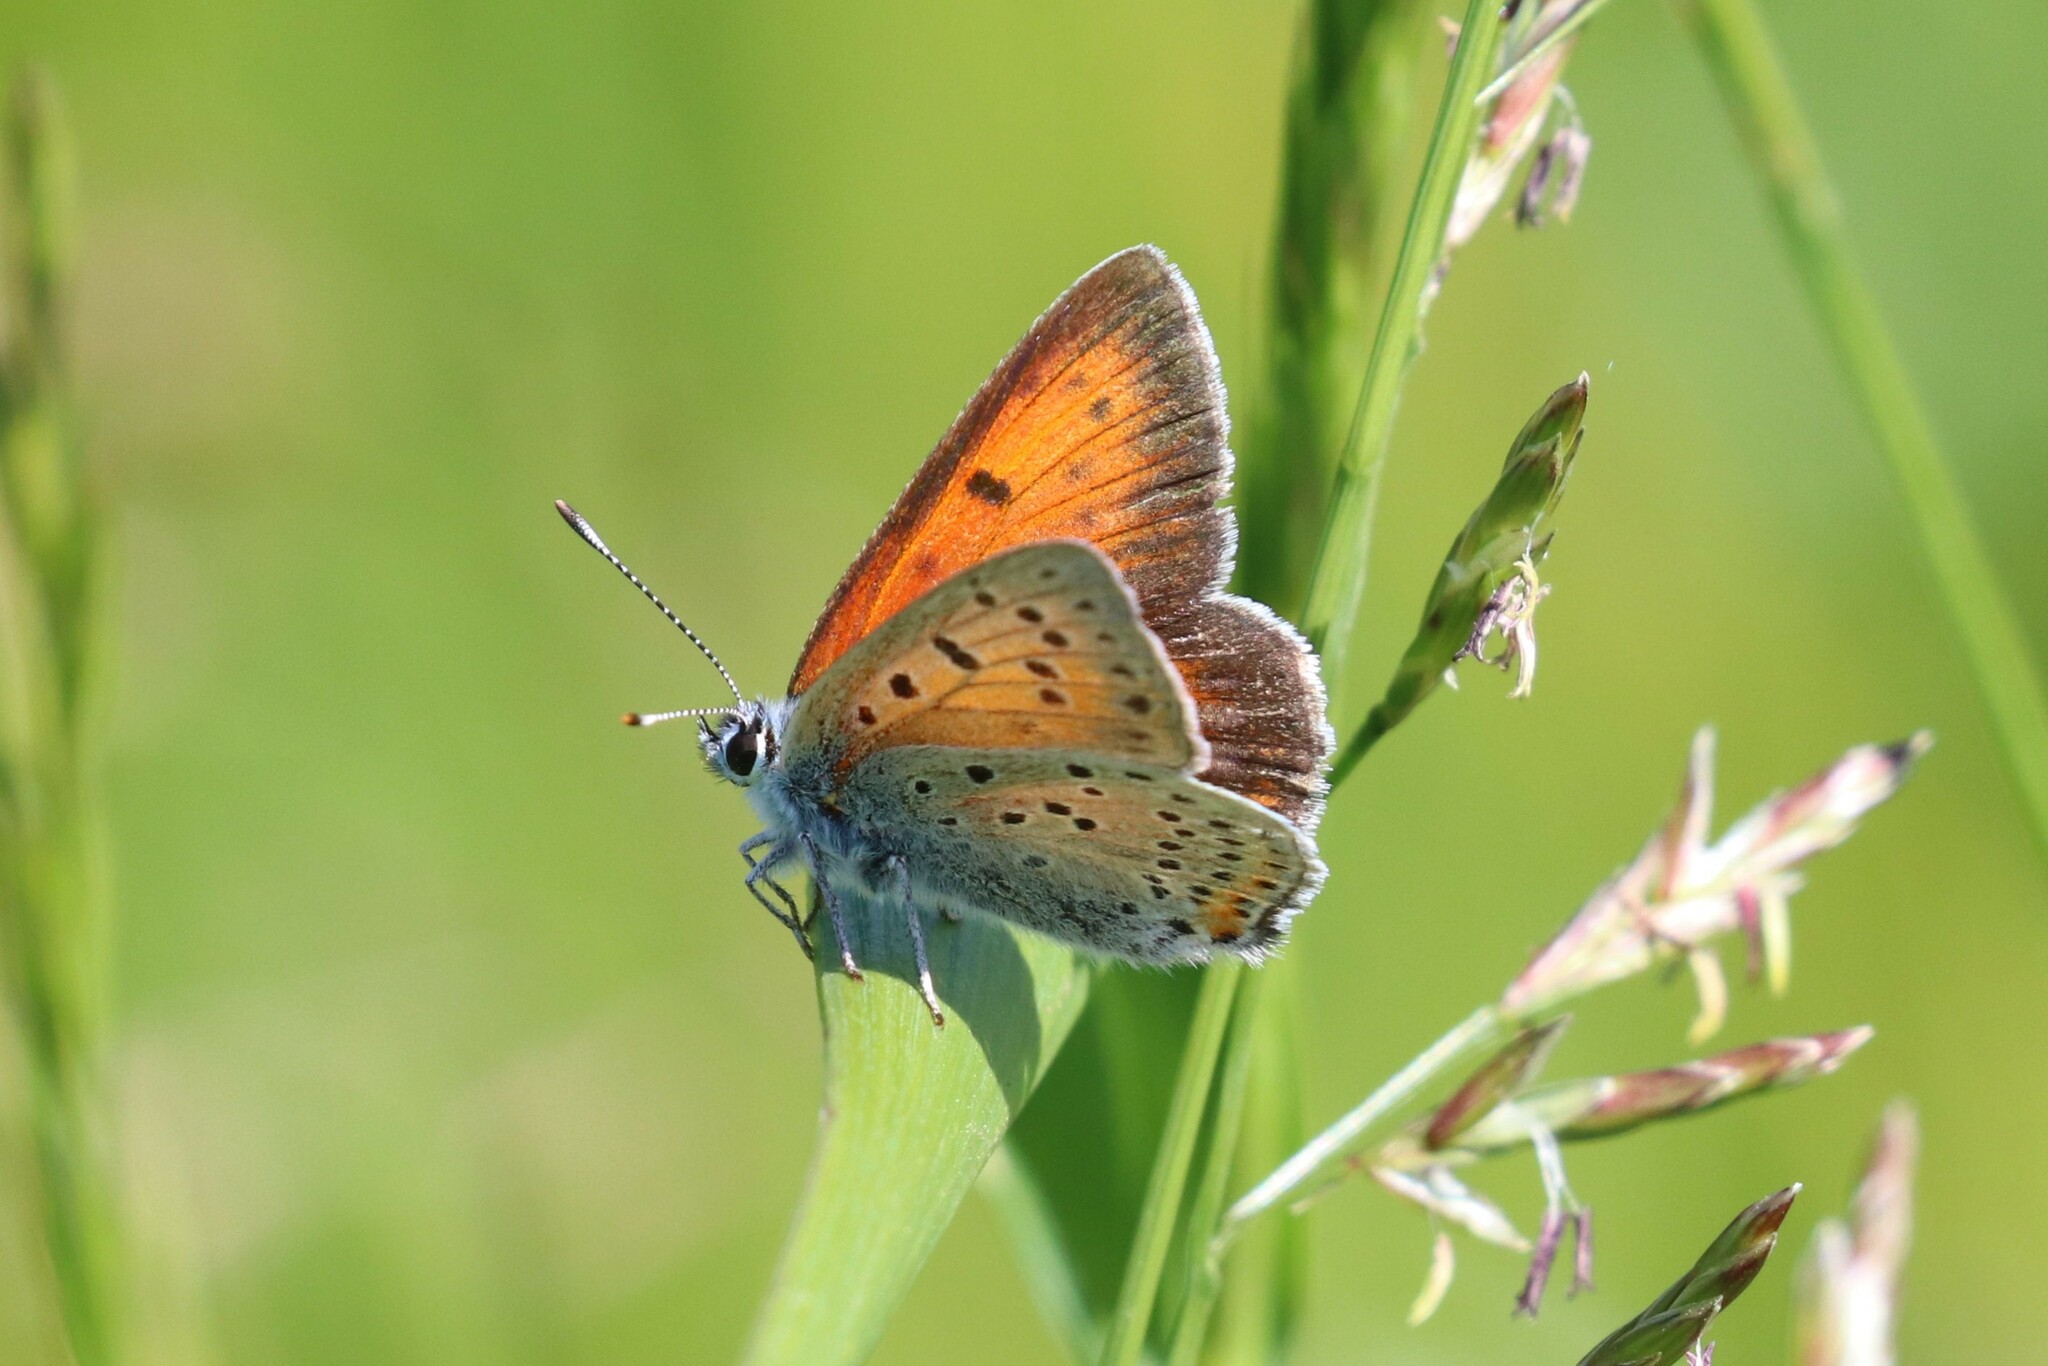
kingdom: Animalia
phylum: Arthropoda
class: Insecta
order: Lepidoptera
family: Lycaenidae
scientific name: Lycaenidae
